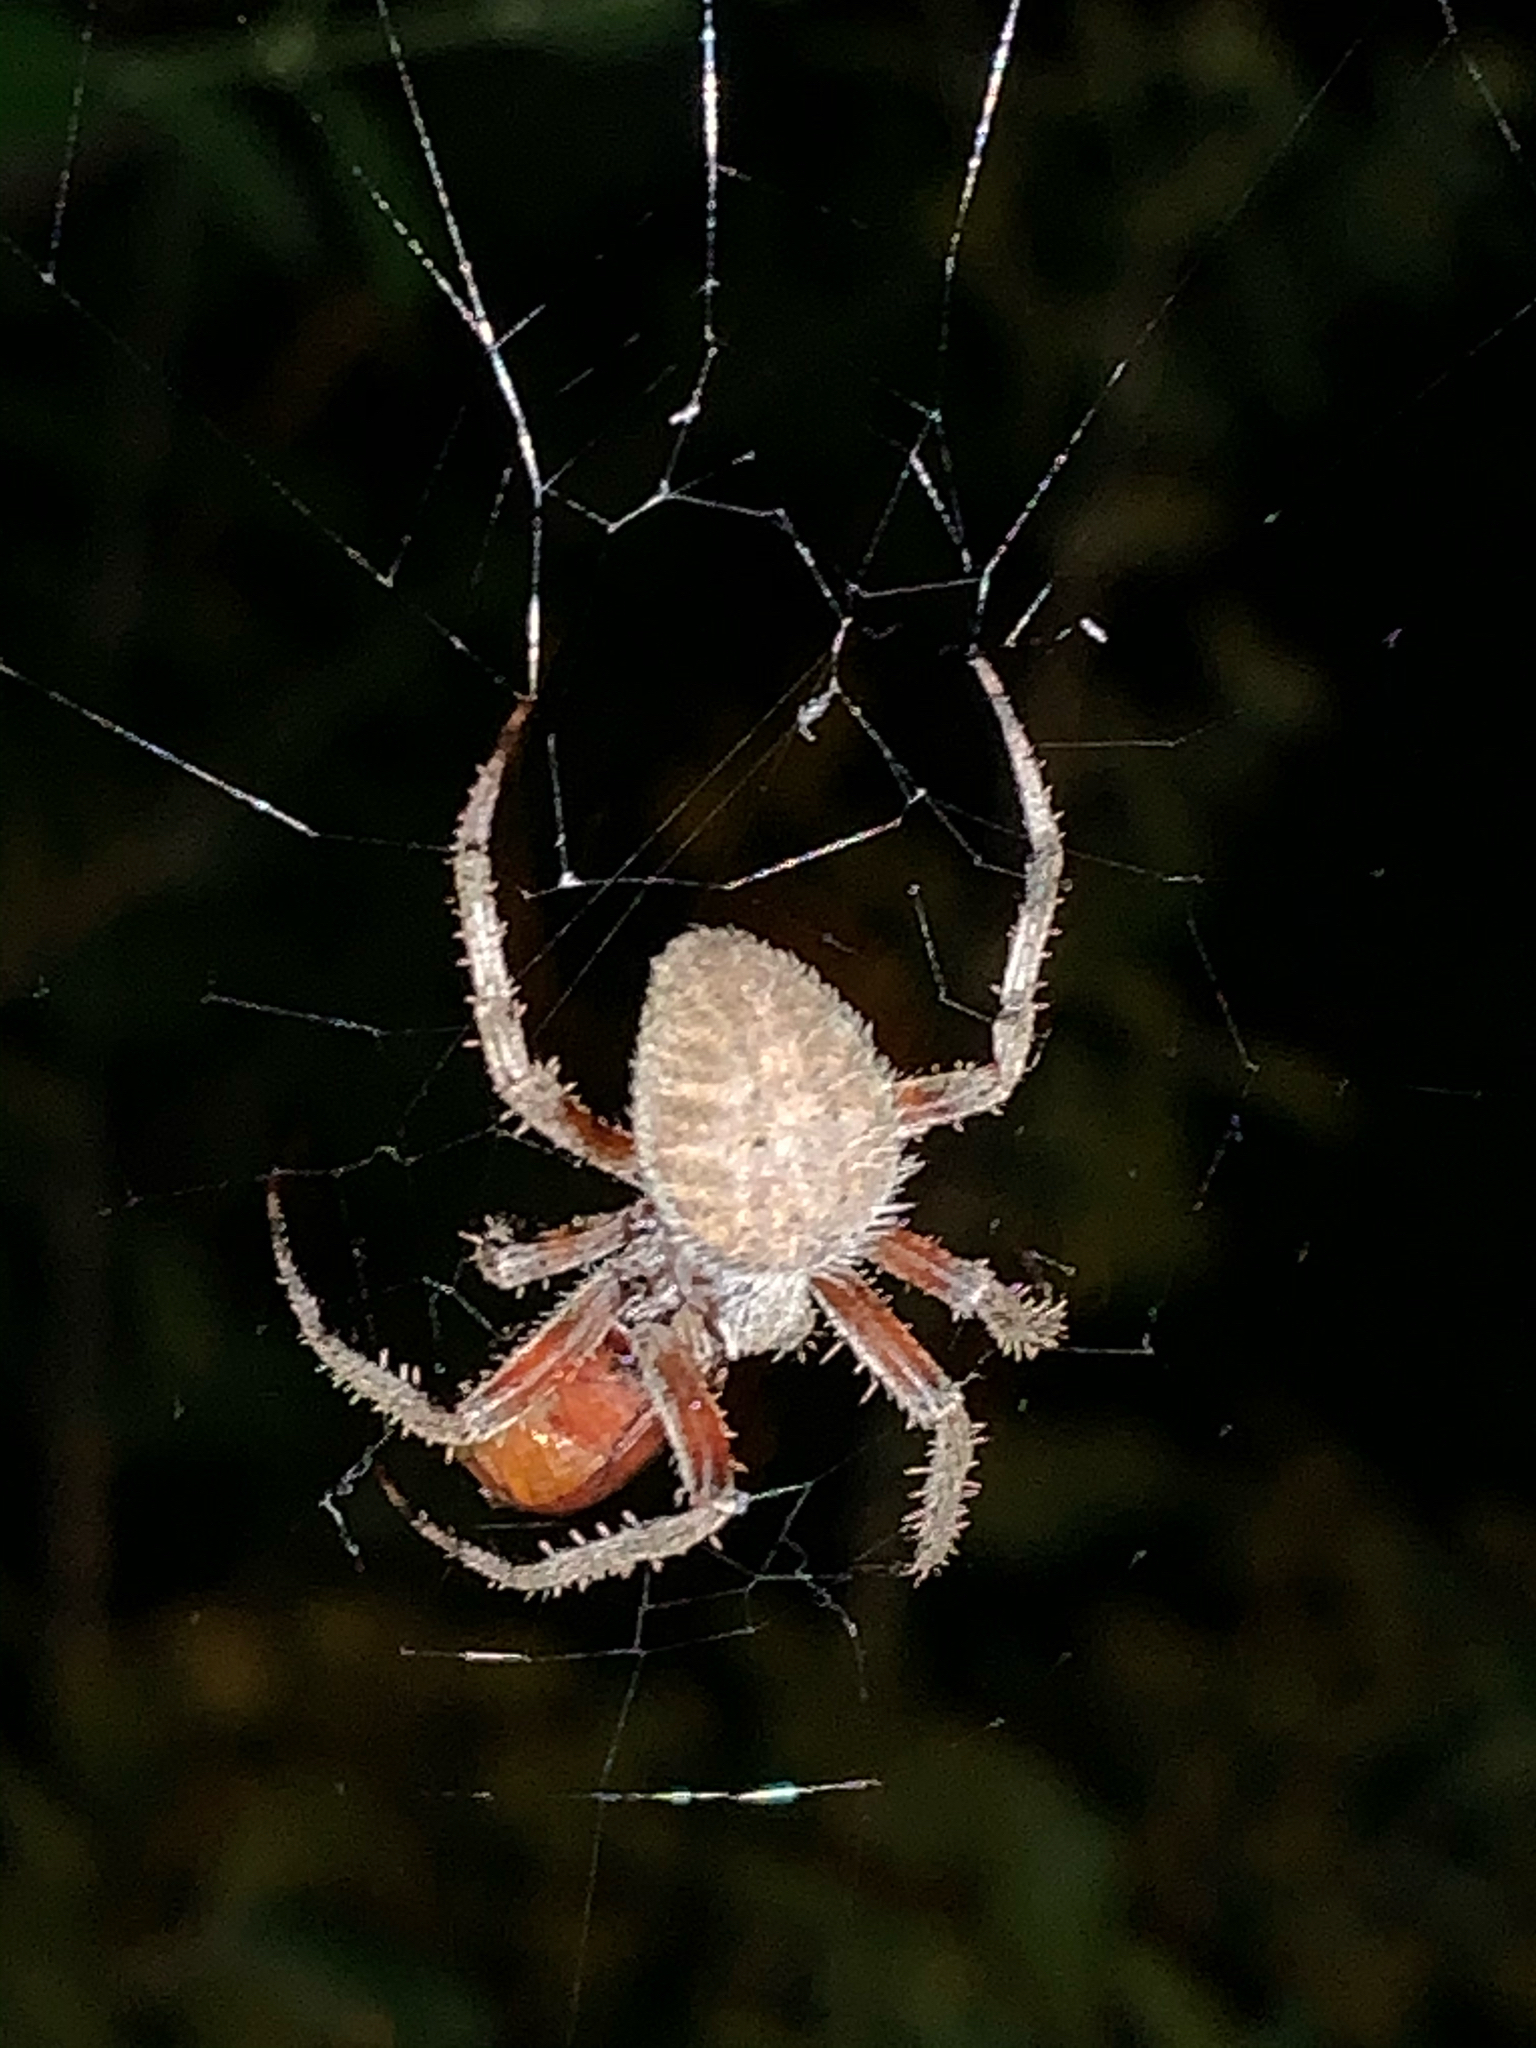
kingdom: Animalia
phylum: Arthropoda
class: Arachnida
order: Araneae
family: Araneidae
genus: Neoscona
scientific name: Neoscona crucifera
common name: Spotted orbweaver
